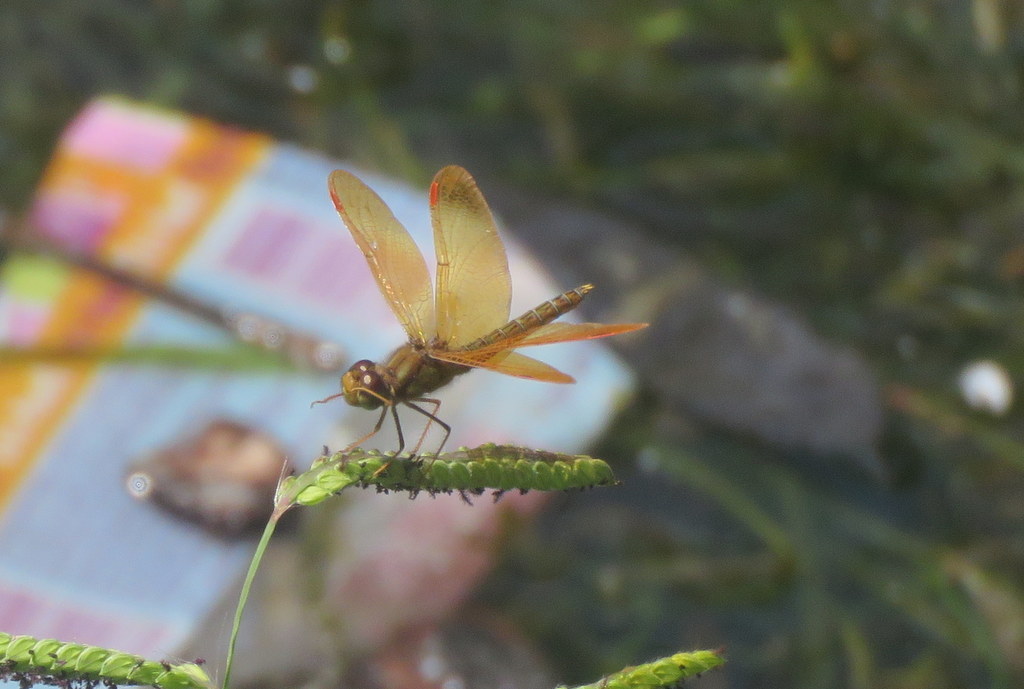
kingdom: Animalia
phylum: Arthropoda
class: Insecta
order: Odonata
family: Libellulidae
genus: Perithemis
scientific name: Perithemis tenera
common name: Eastern amberwing
